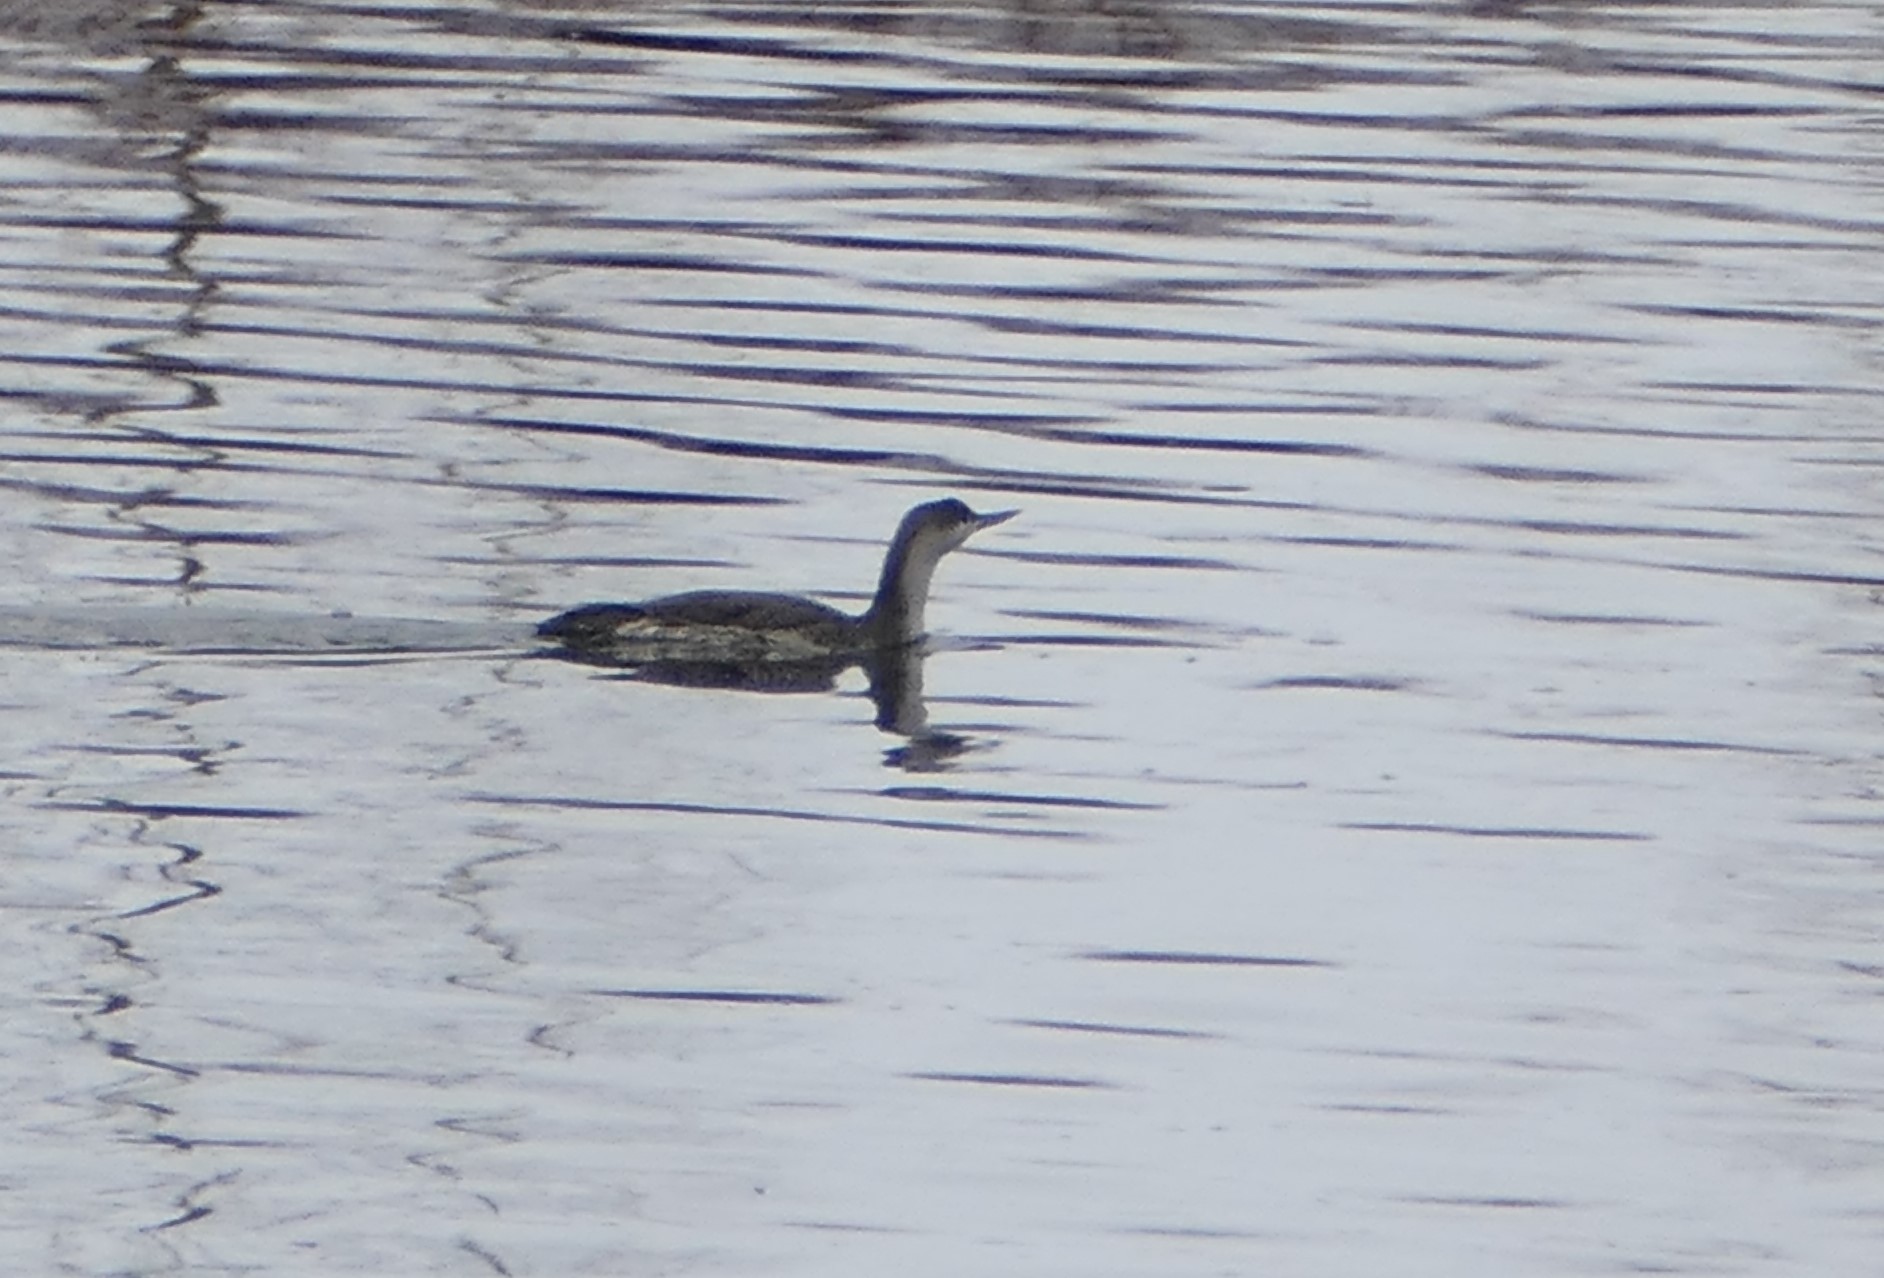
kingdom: Animalia
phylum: Chordata
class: Aves
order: Gaviiformes
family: Gaviidae
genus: Gavia
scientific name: Gavia stellata
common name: Red-throated loon
